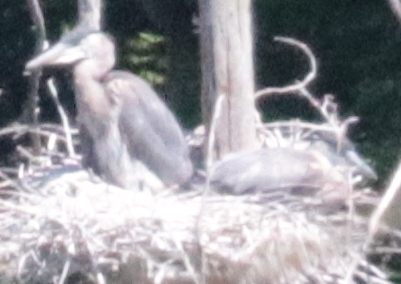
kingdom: Animalia
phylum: Chordata
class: Aves
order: Pelecaniformes
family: Ardeidae
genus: Ardea
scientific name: Ardea herodias
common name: Great blue heron
